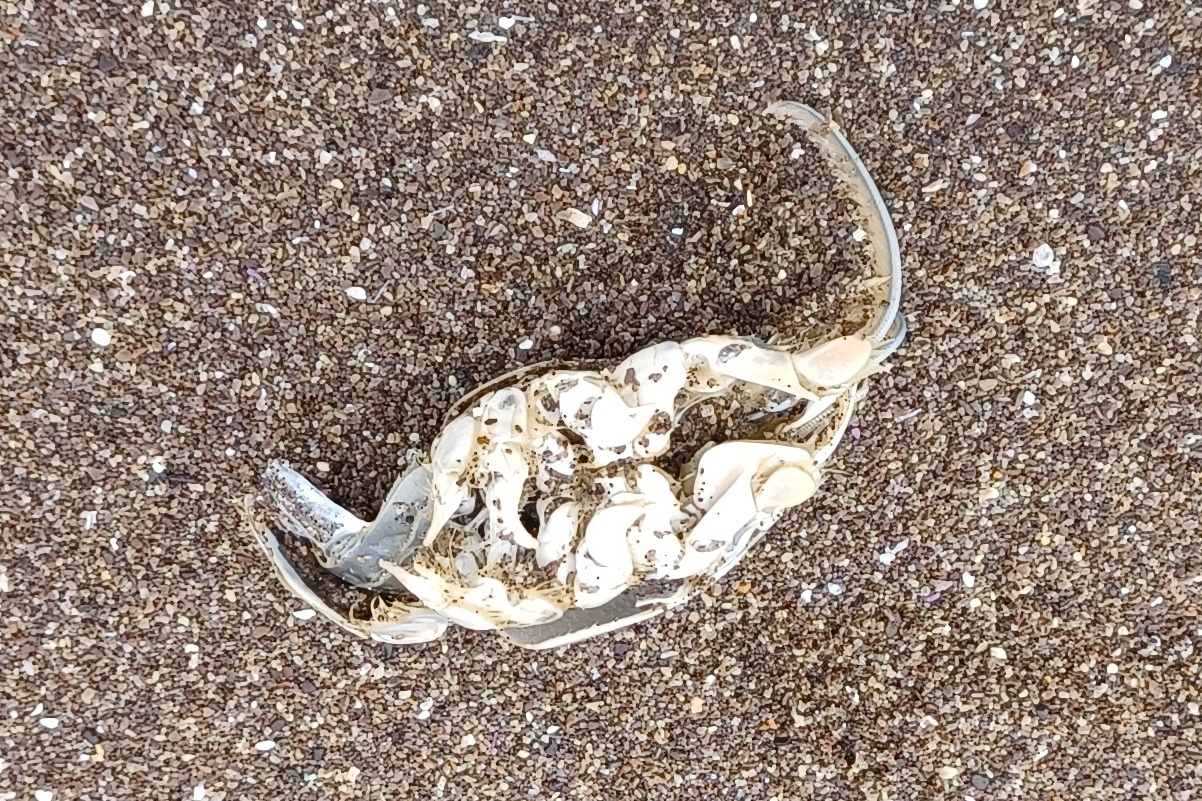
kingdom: Animalia
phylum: Arthropoda
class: Malacostraca
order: Decapoda
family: Hippidae
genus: Emerita
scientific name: Emerita analoga
